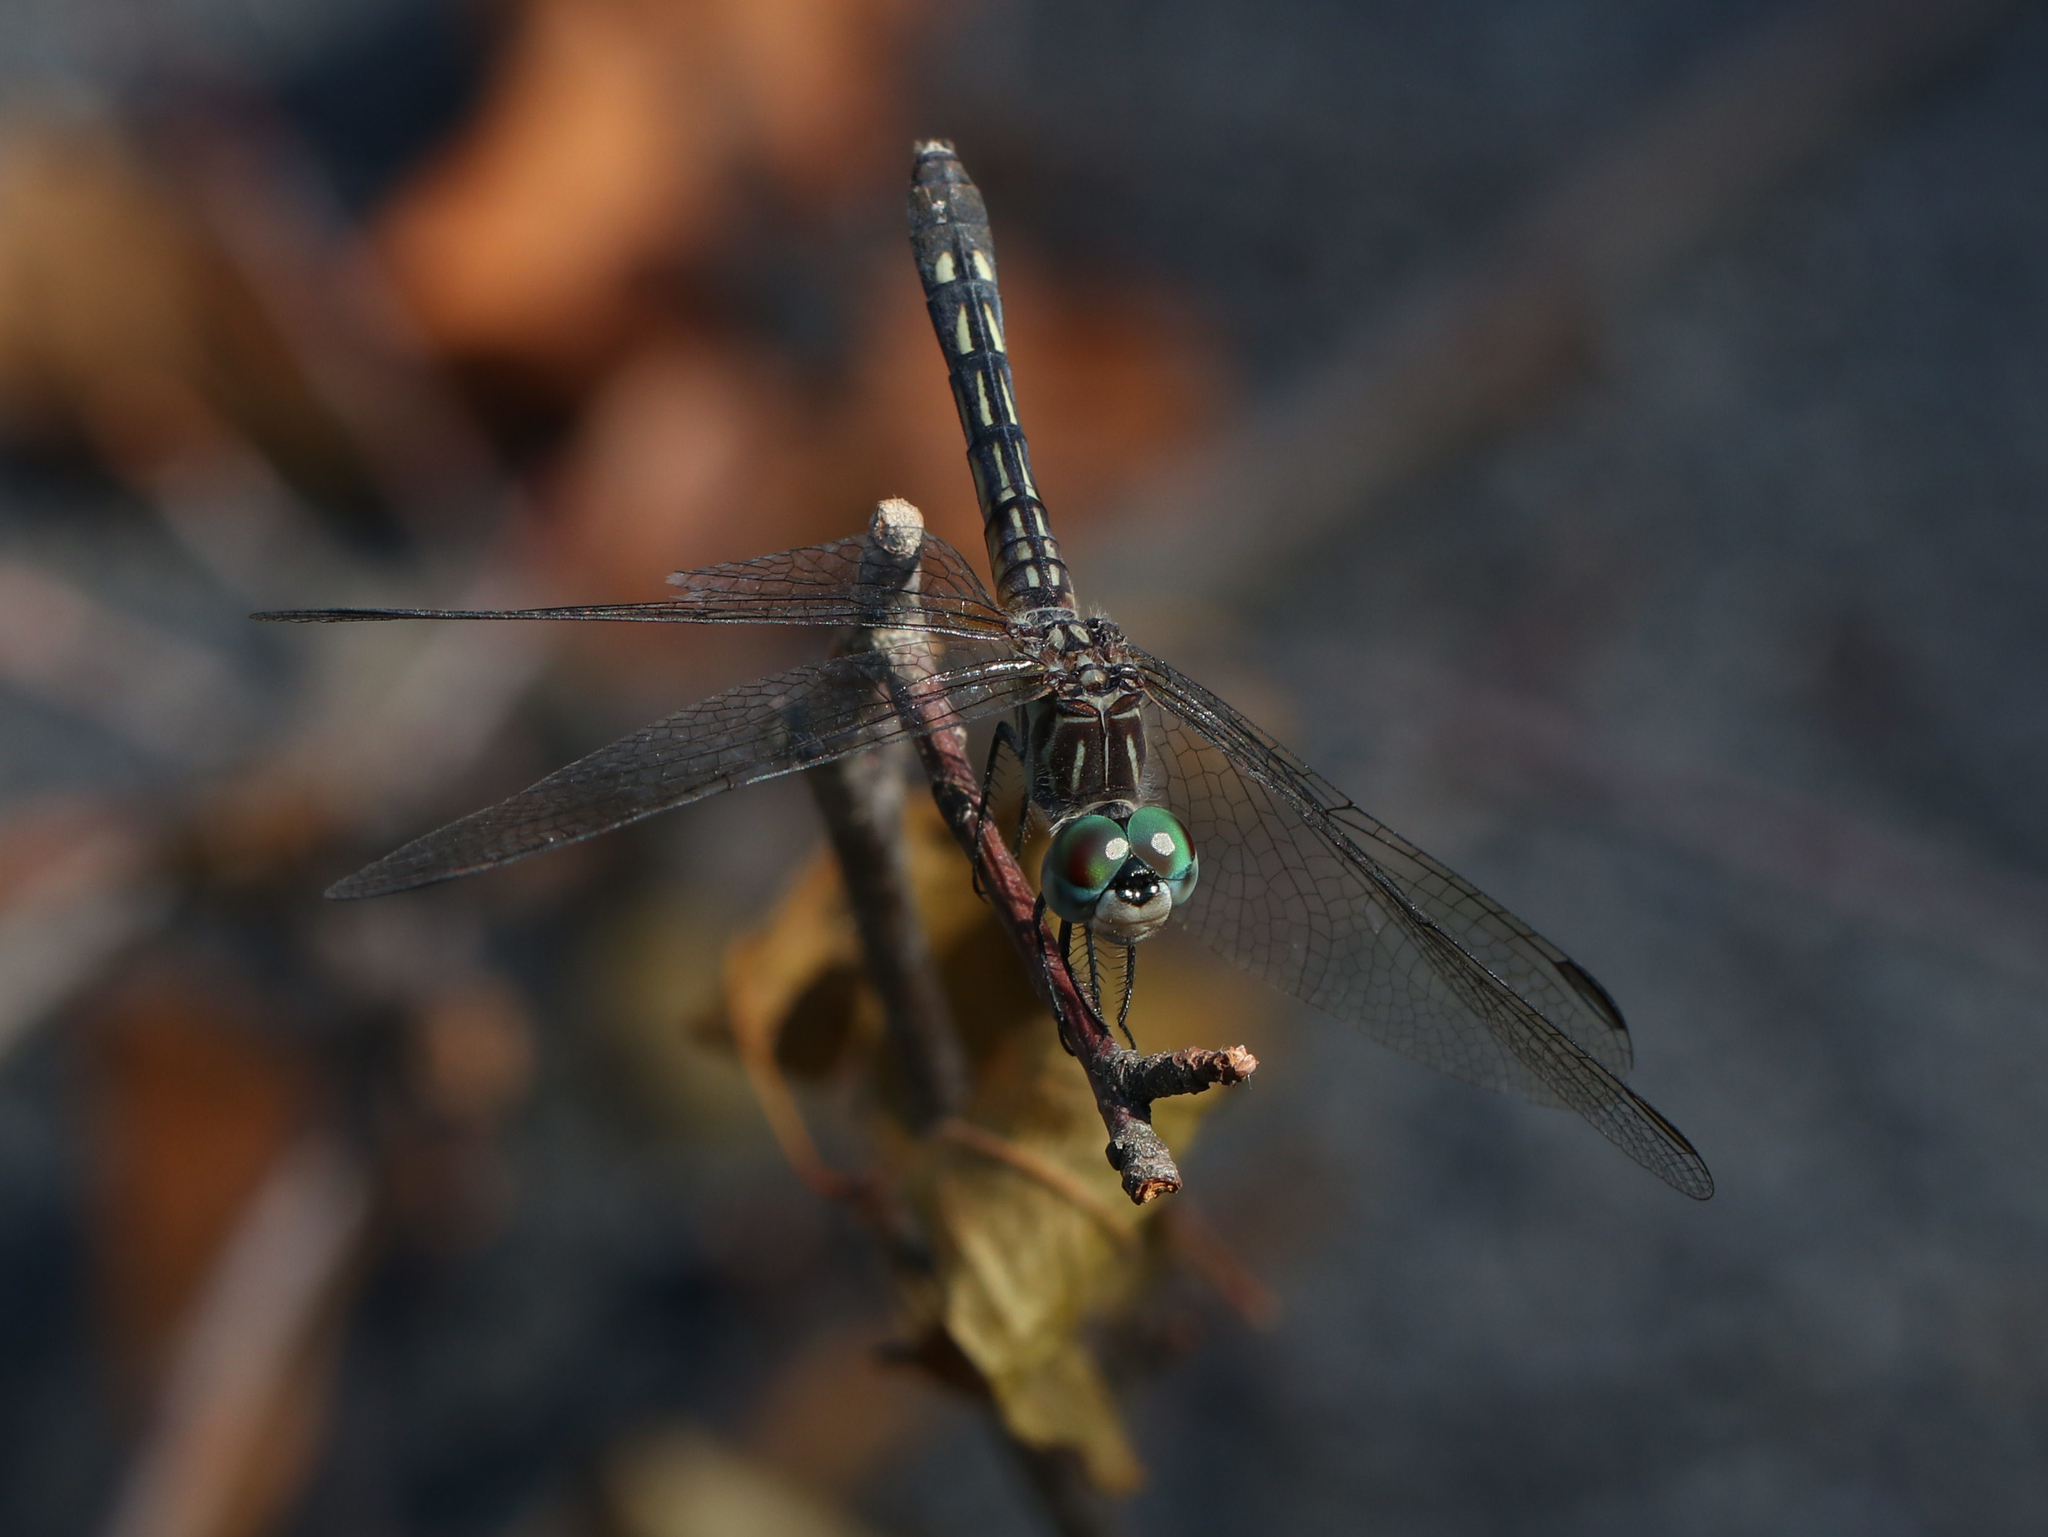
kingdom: Animalia
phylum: Arthropoda
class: Insecta
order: Odonata
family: Libellulidae
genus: Pachydiplax
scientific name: Pachydiplax longipennis
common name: Blue dasher
